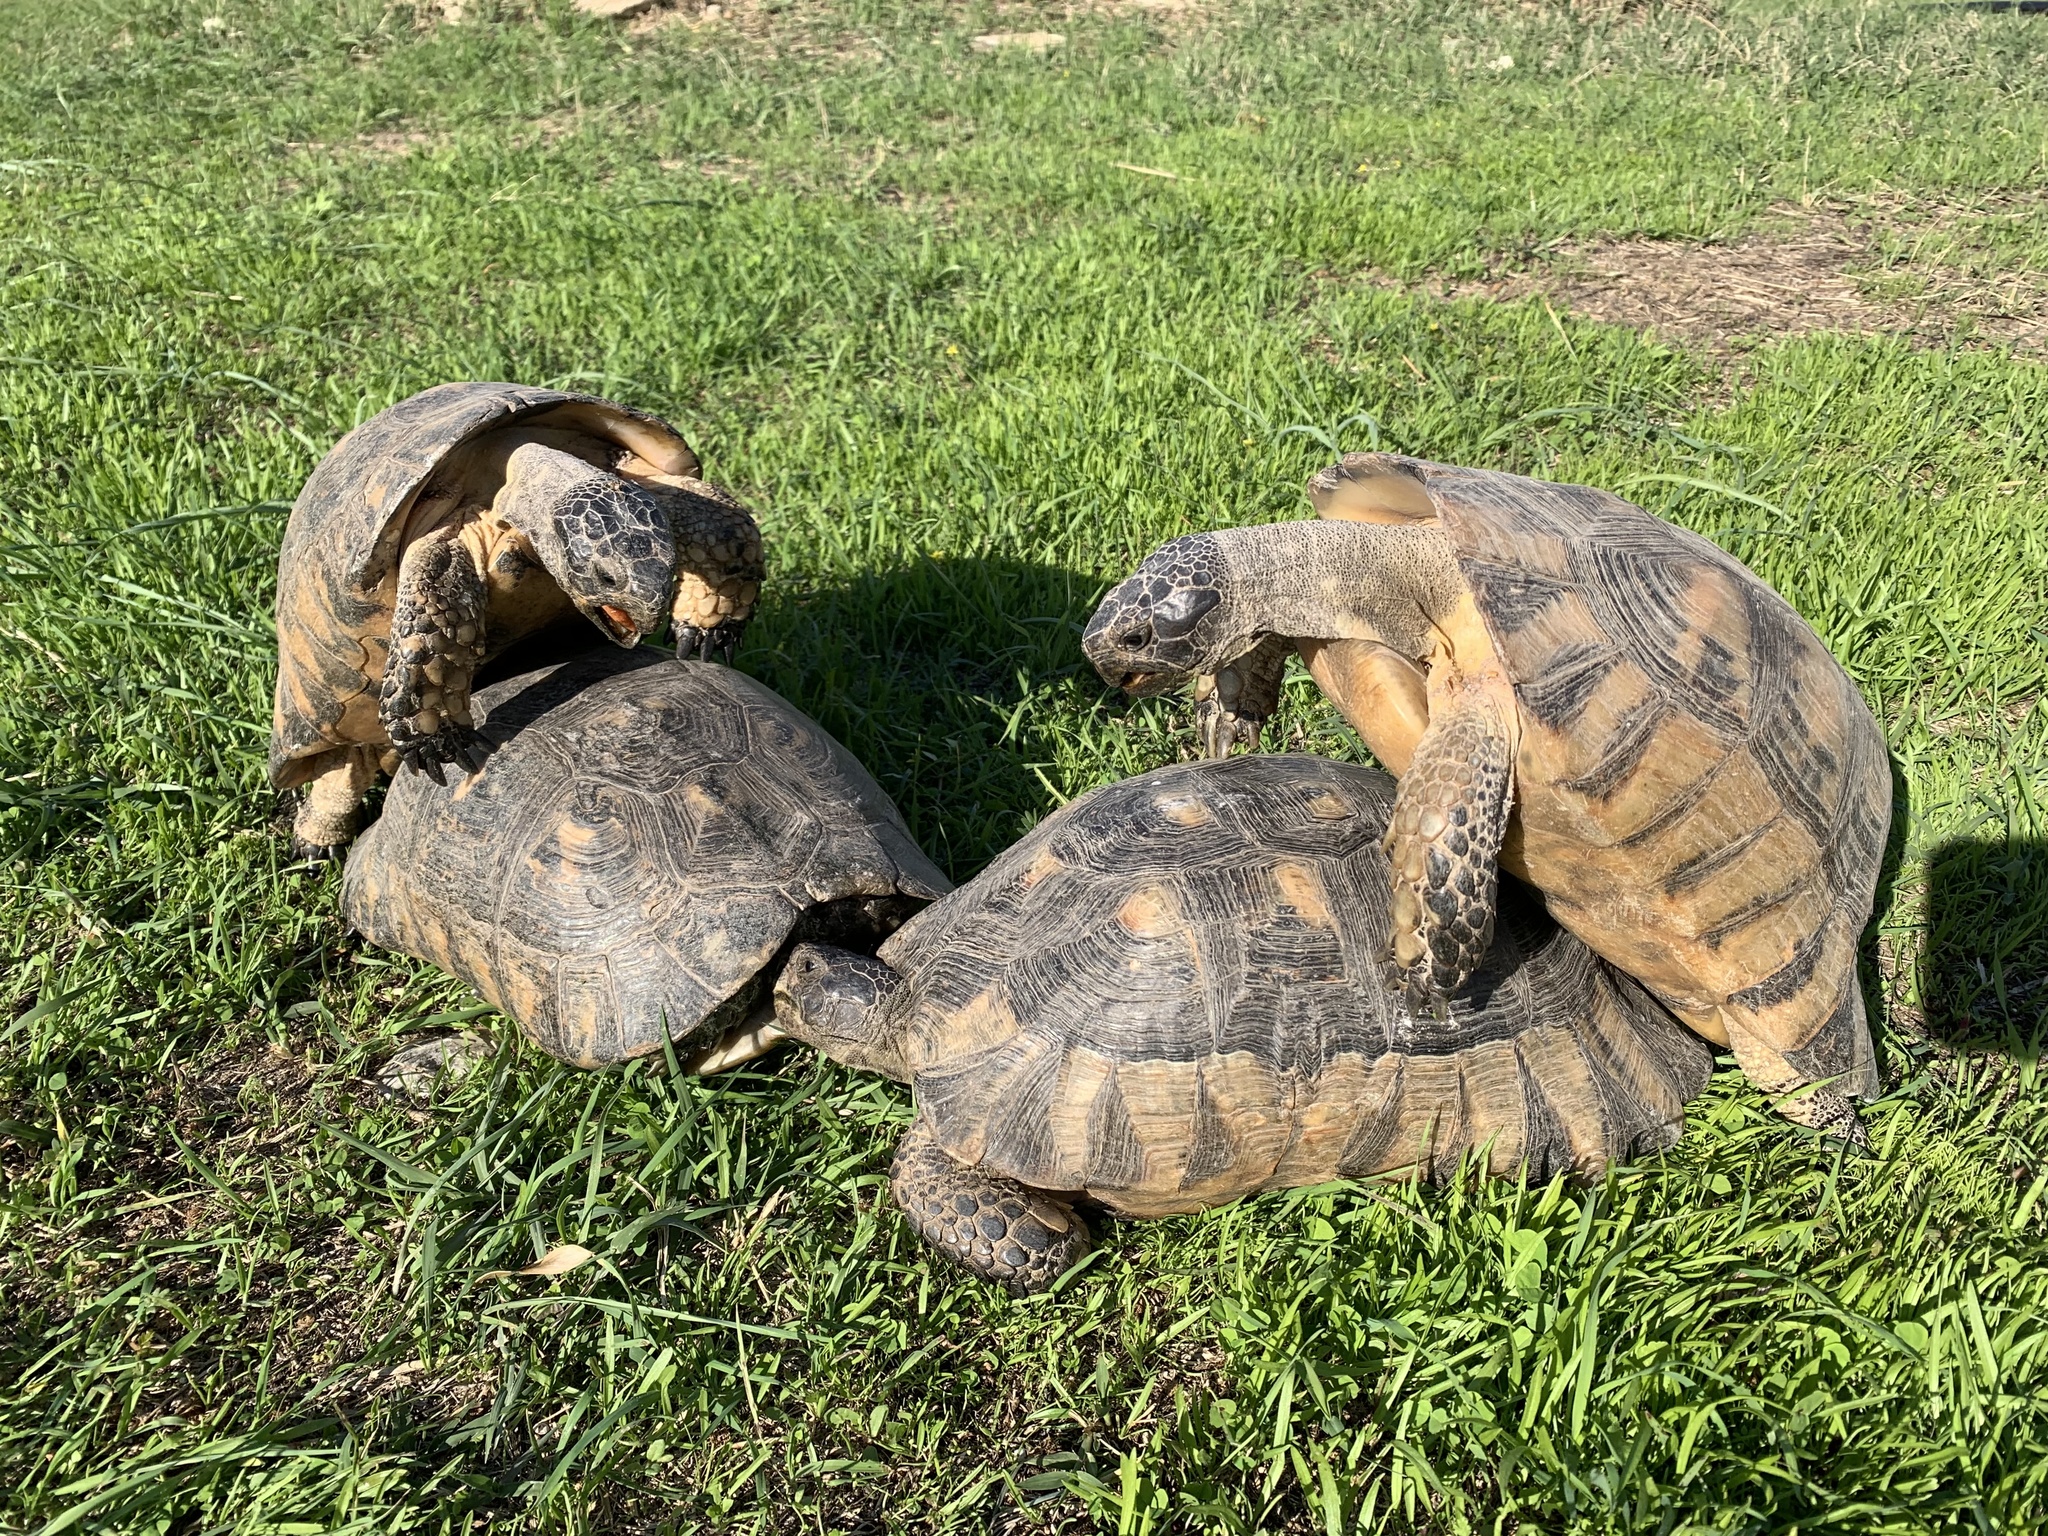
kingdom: Animalia
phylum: Chordata
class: Testudines
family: Testudinidae
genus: Testudo
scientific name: Testudo marginata
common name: Marginated tortoise
